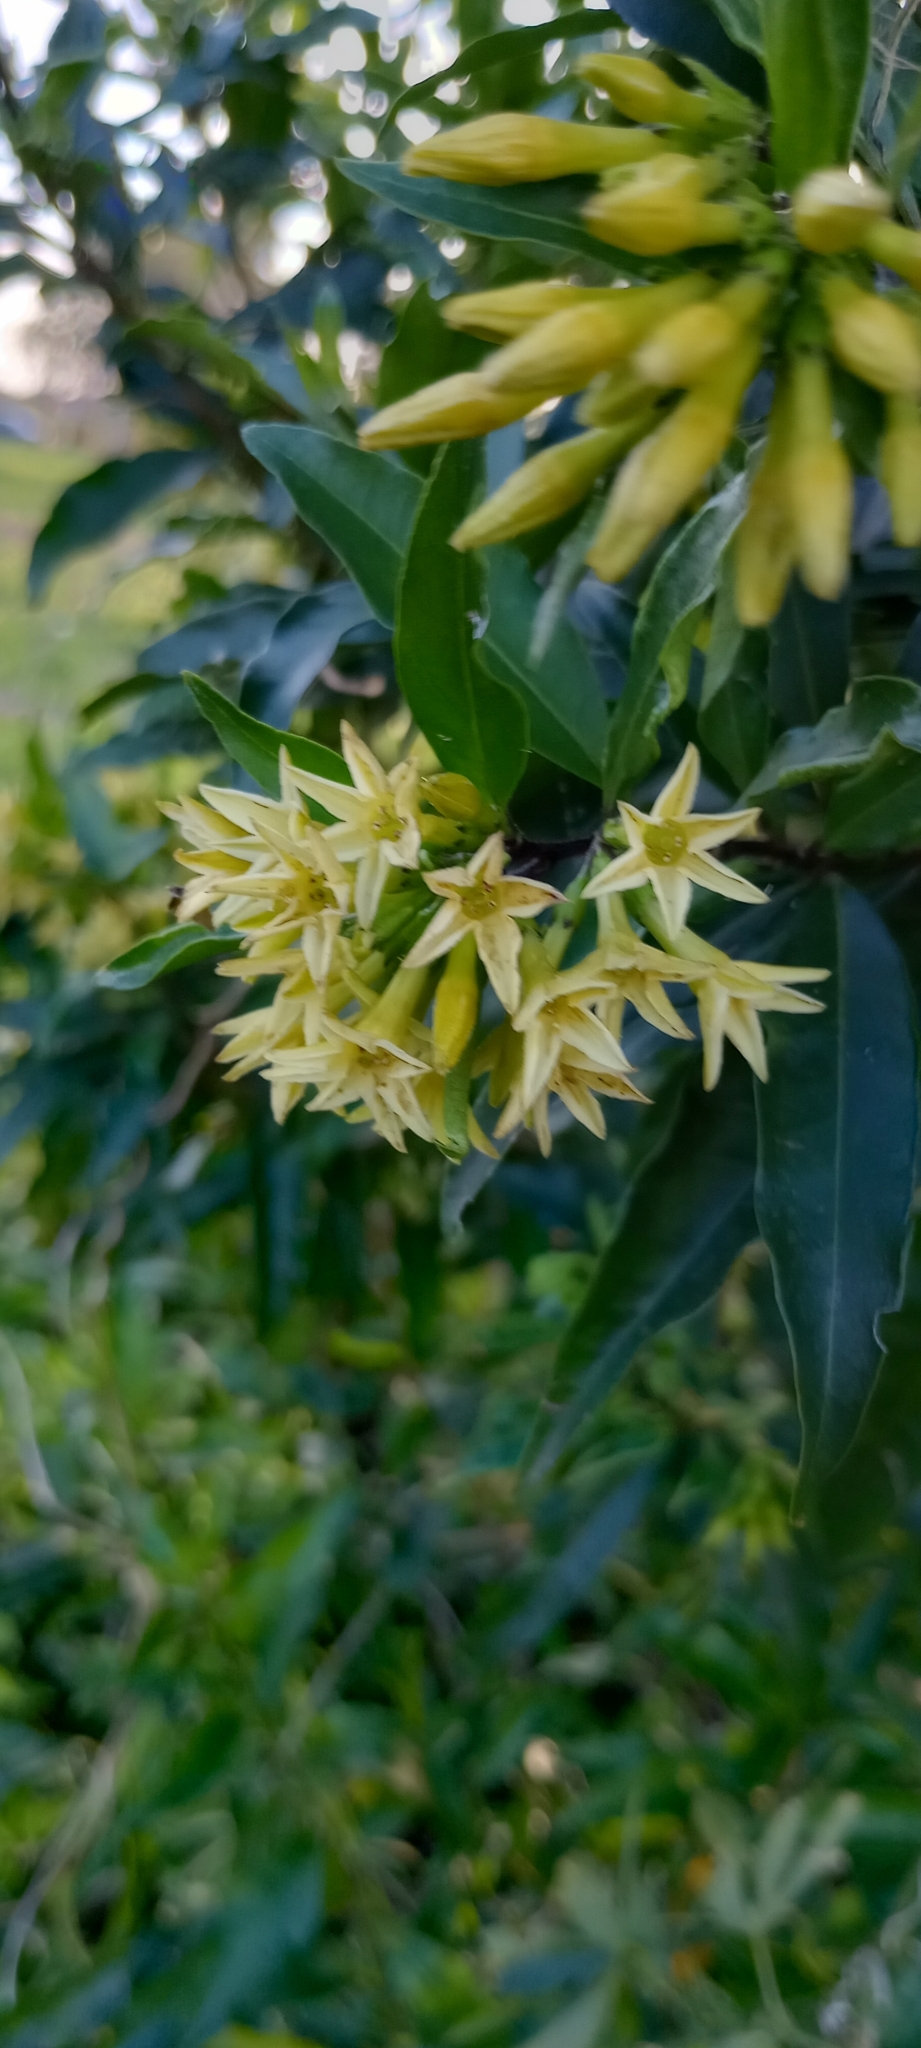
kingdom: Plantae
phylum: Tracheophyta
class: Magnoliopsida
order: Solanales
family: Solanaceae
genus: Cestrum
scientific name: Cestrum parqui
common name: Chilean cestrum
